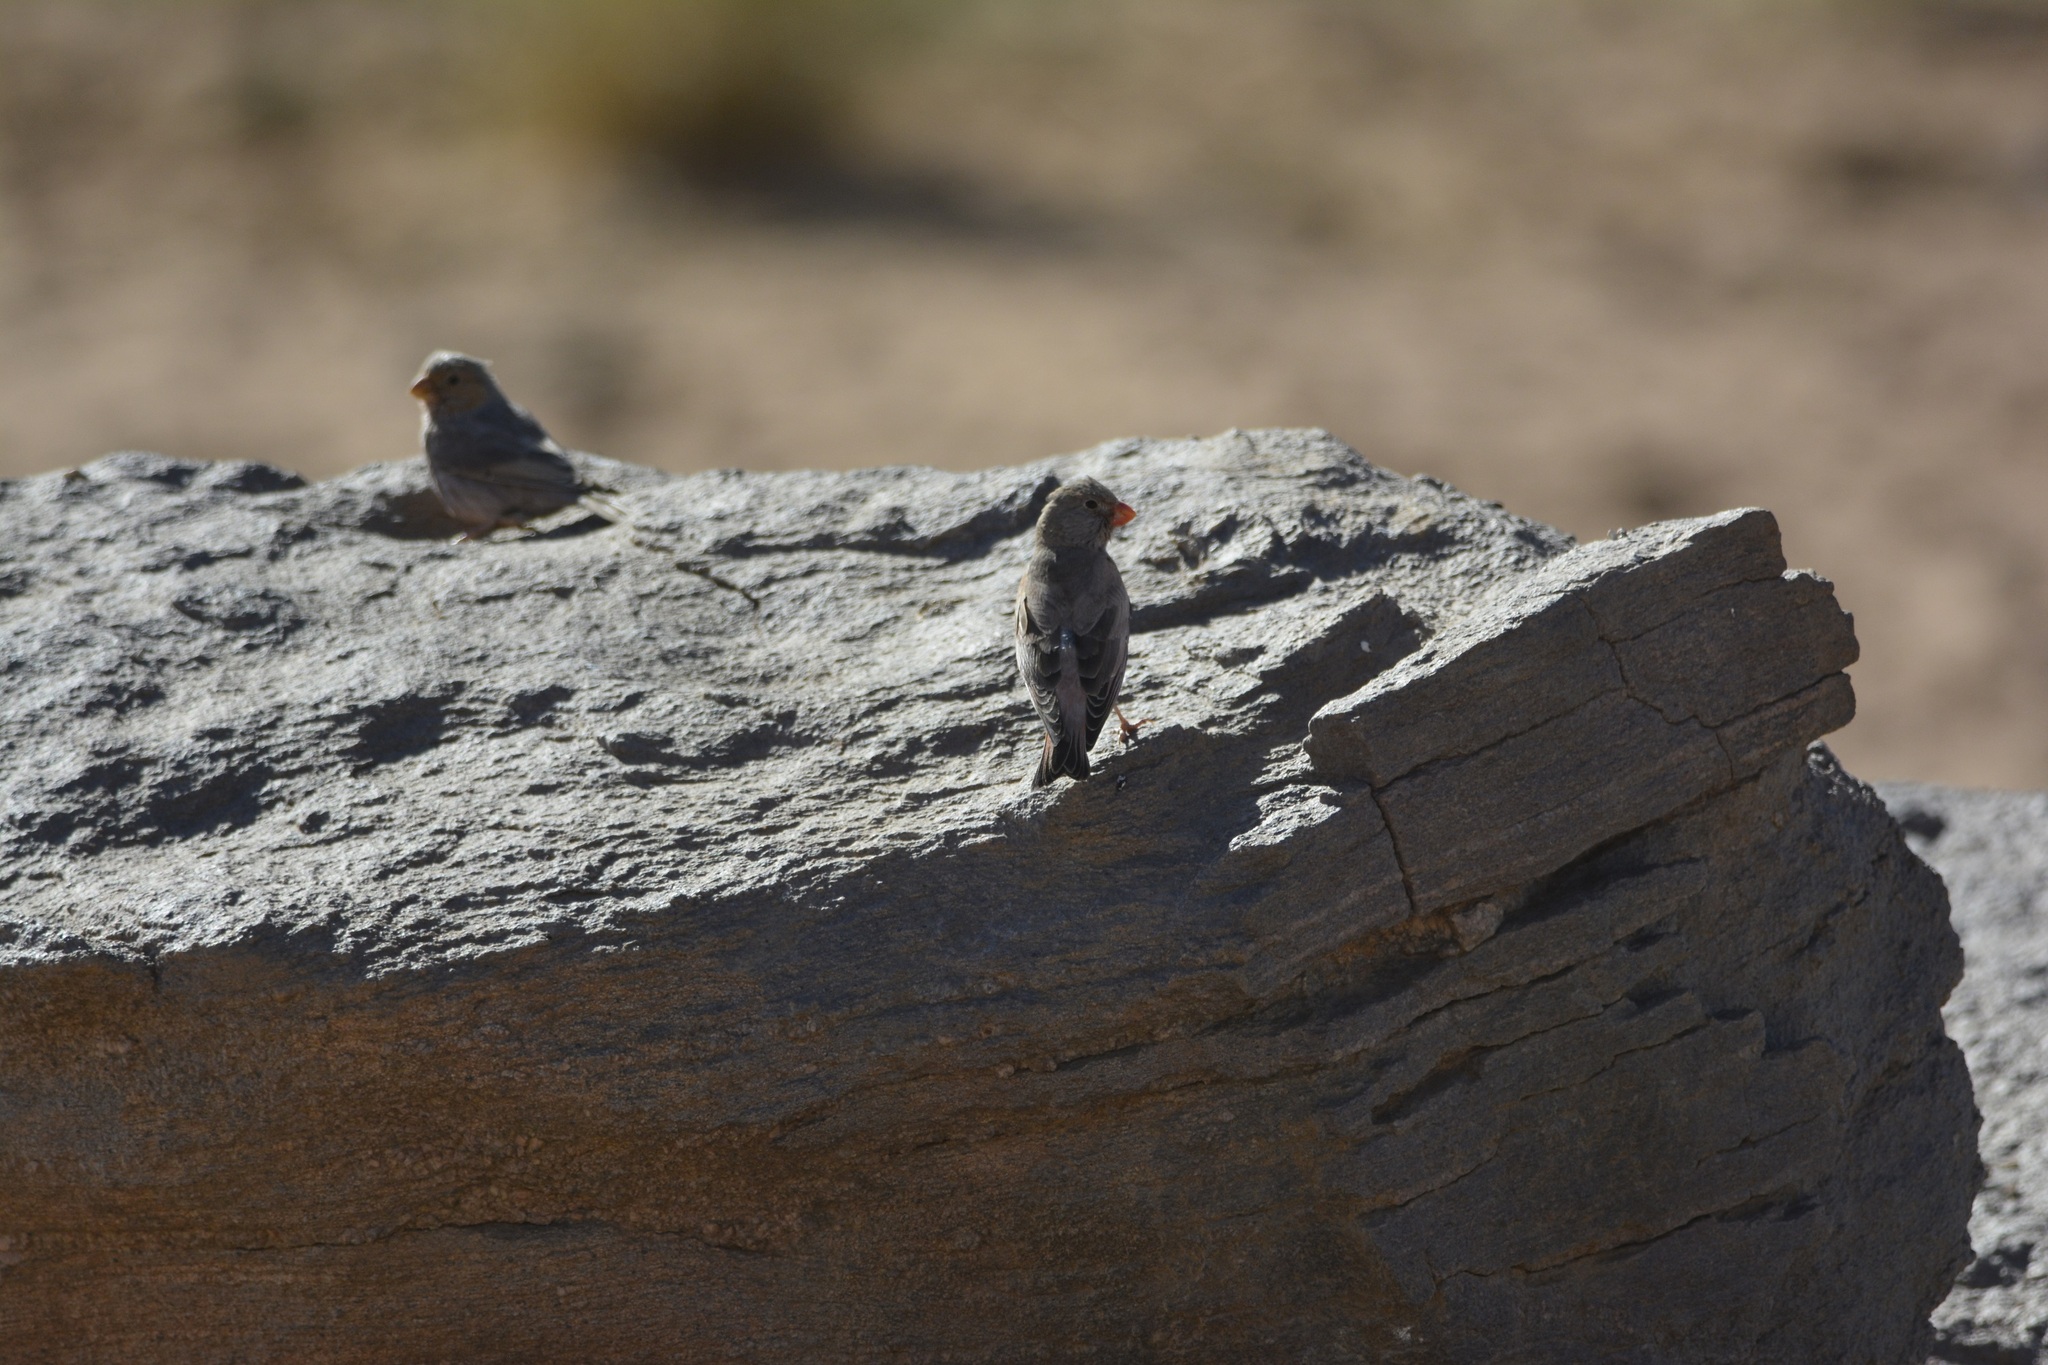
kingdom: Animalia
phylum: Chordata
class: Aves
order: Passeriformes
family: Fringillidae
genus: Bucanetes
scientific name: Bucanetes githagineus
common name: Trumpeter finch
